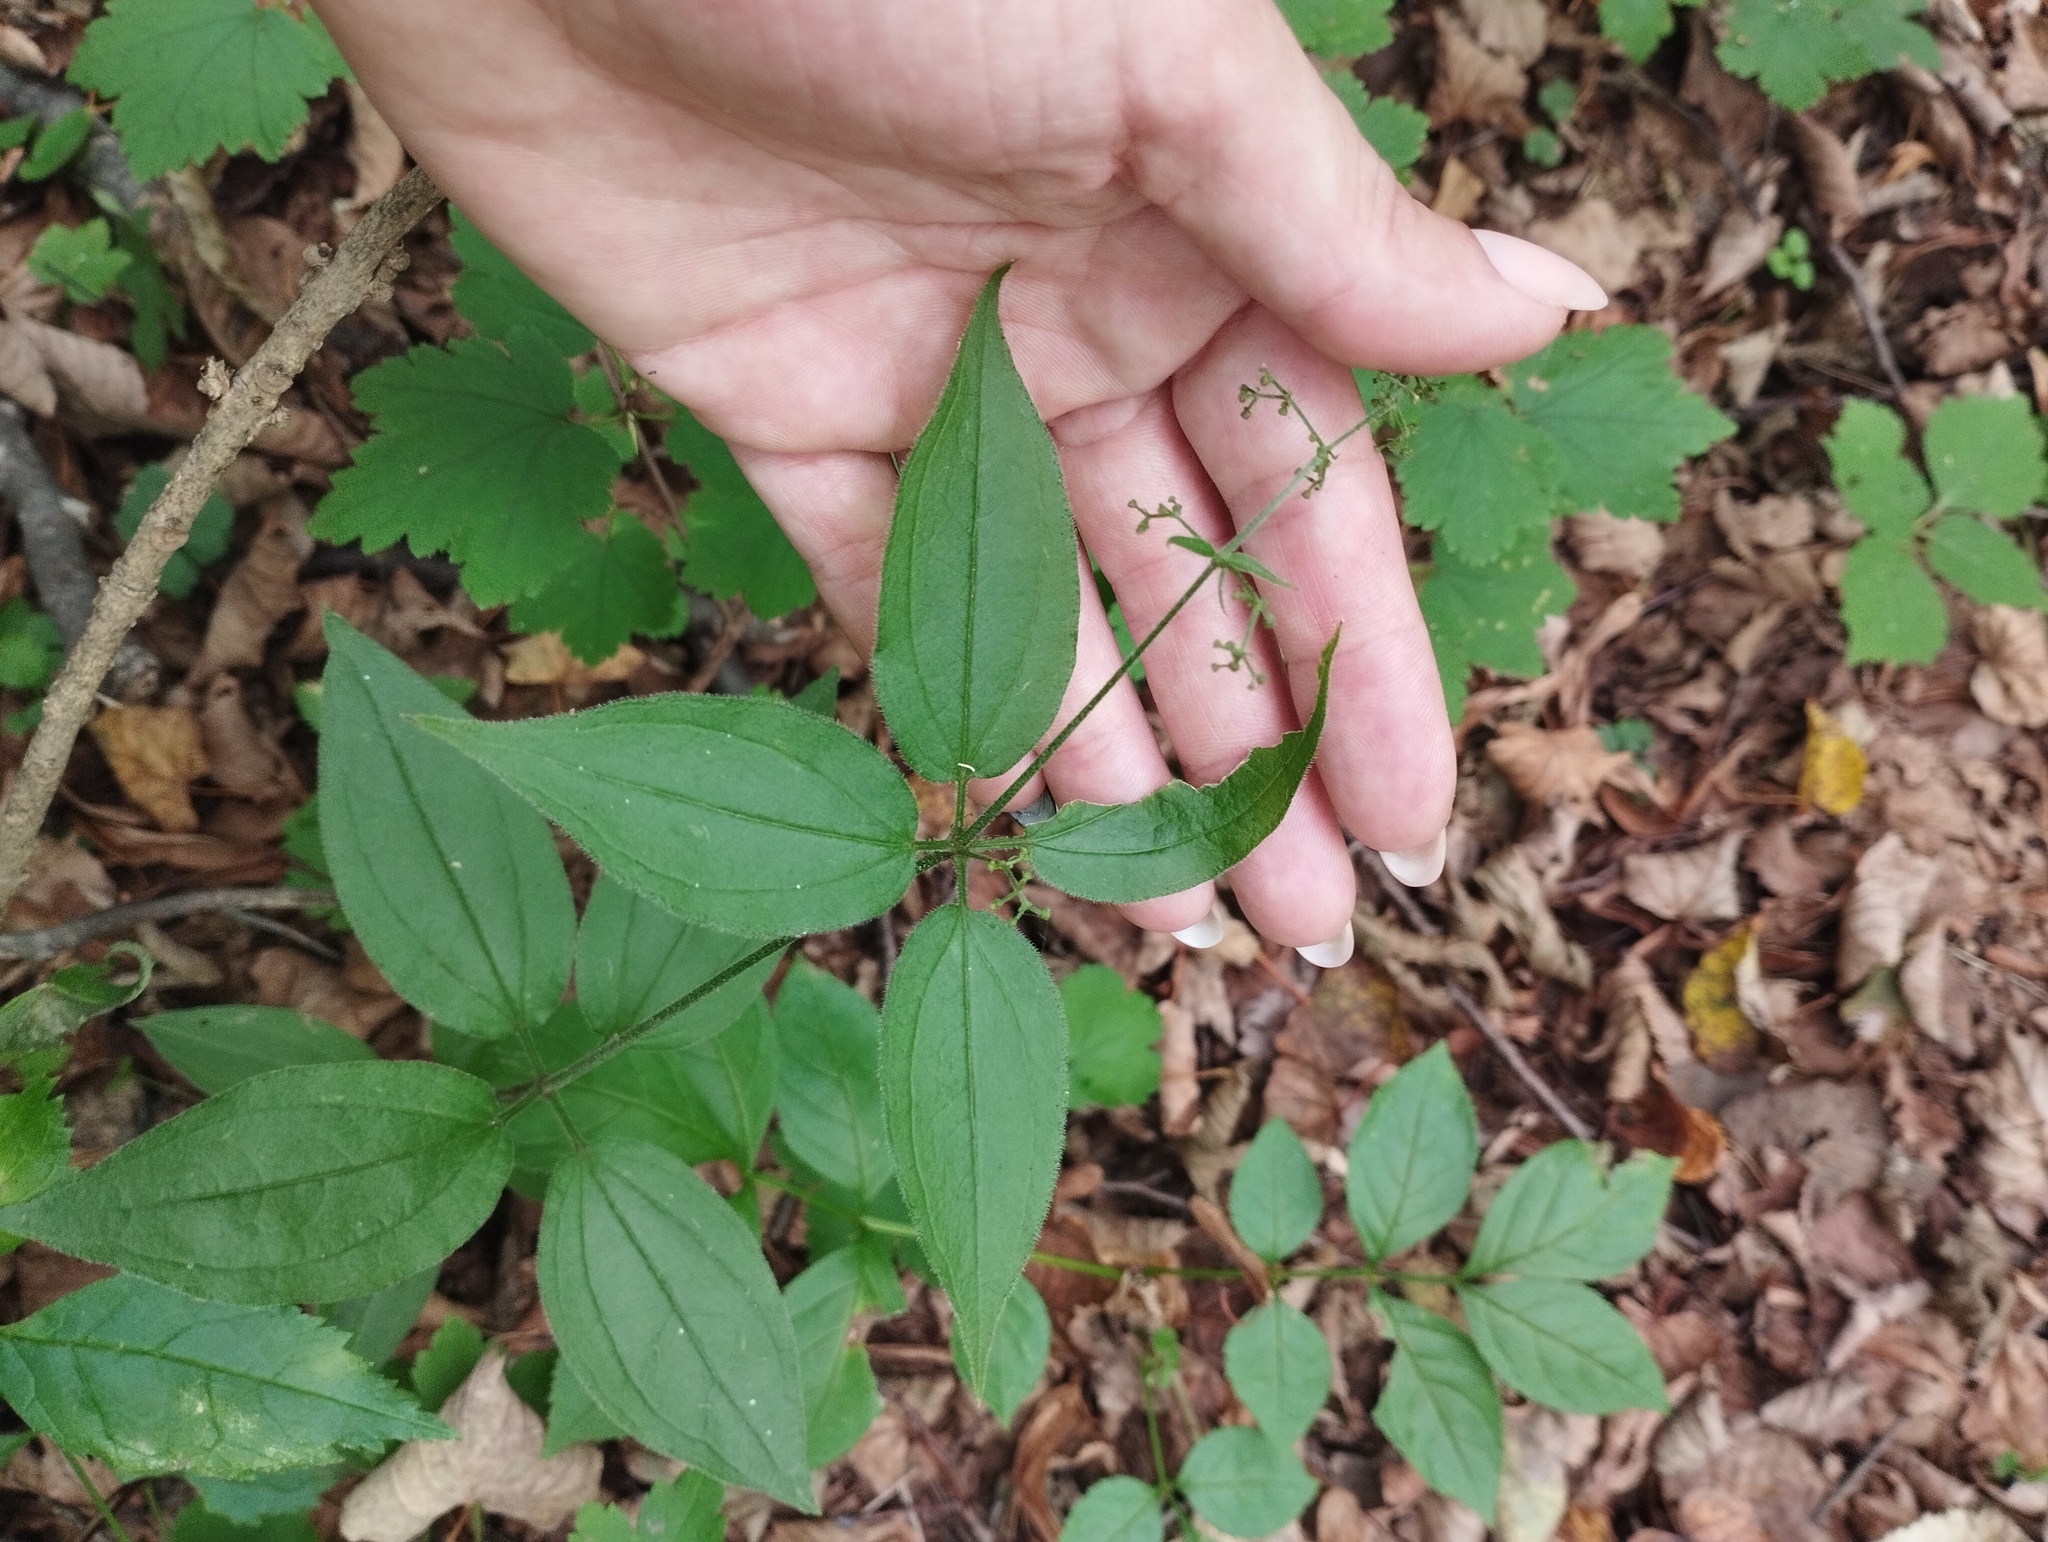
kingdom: Plantae
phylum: Tracheophyta
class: Magnoliopsida
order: Gentianales
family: Rubiaceae
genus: Rubia
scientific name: Rubia chinensis
